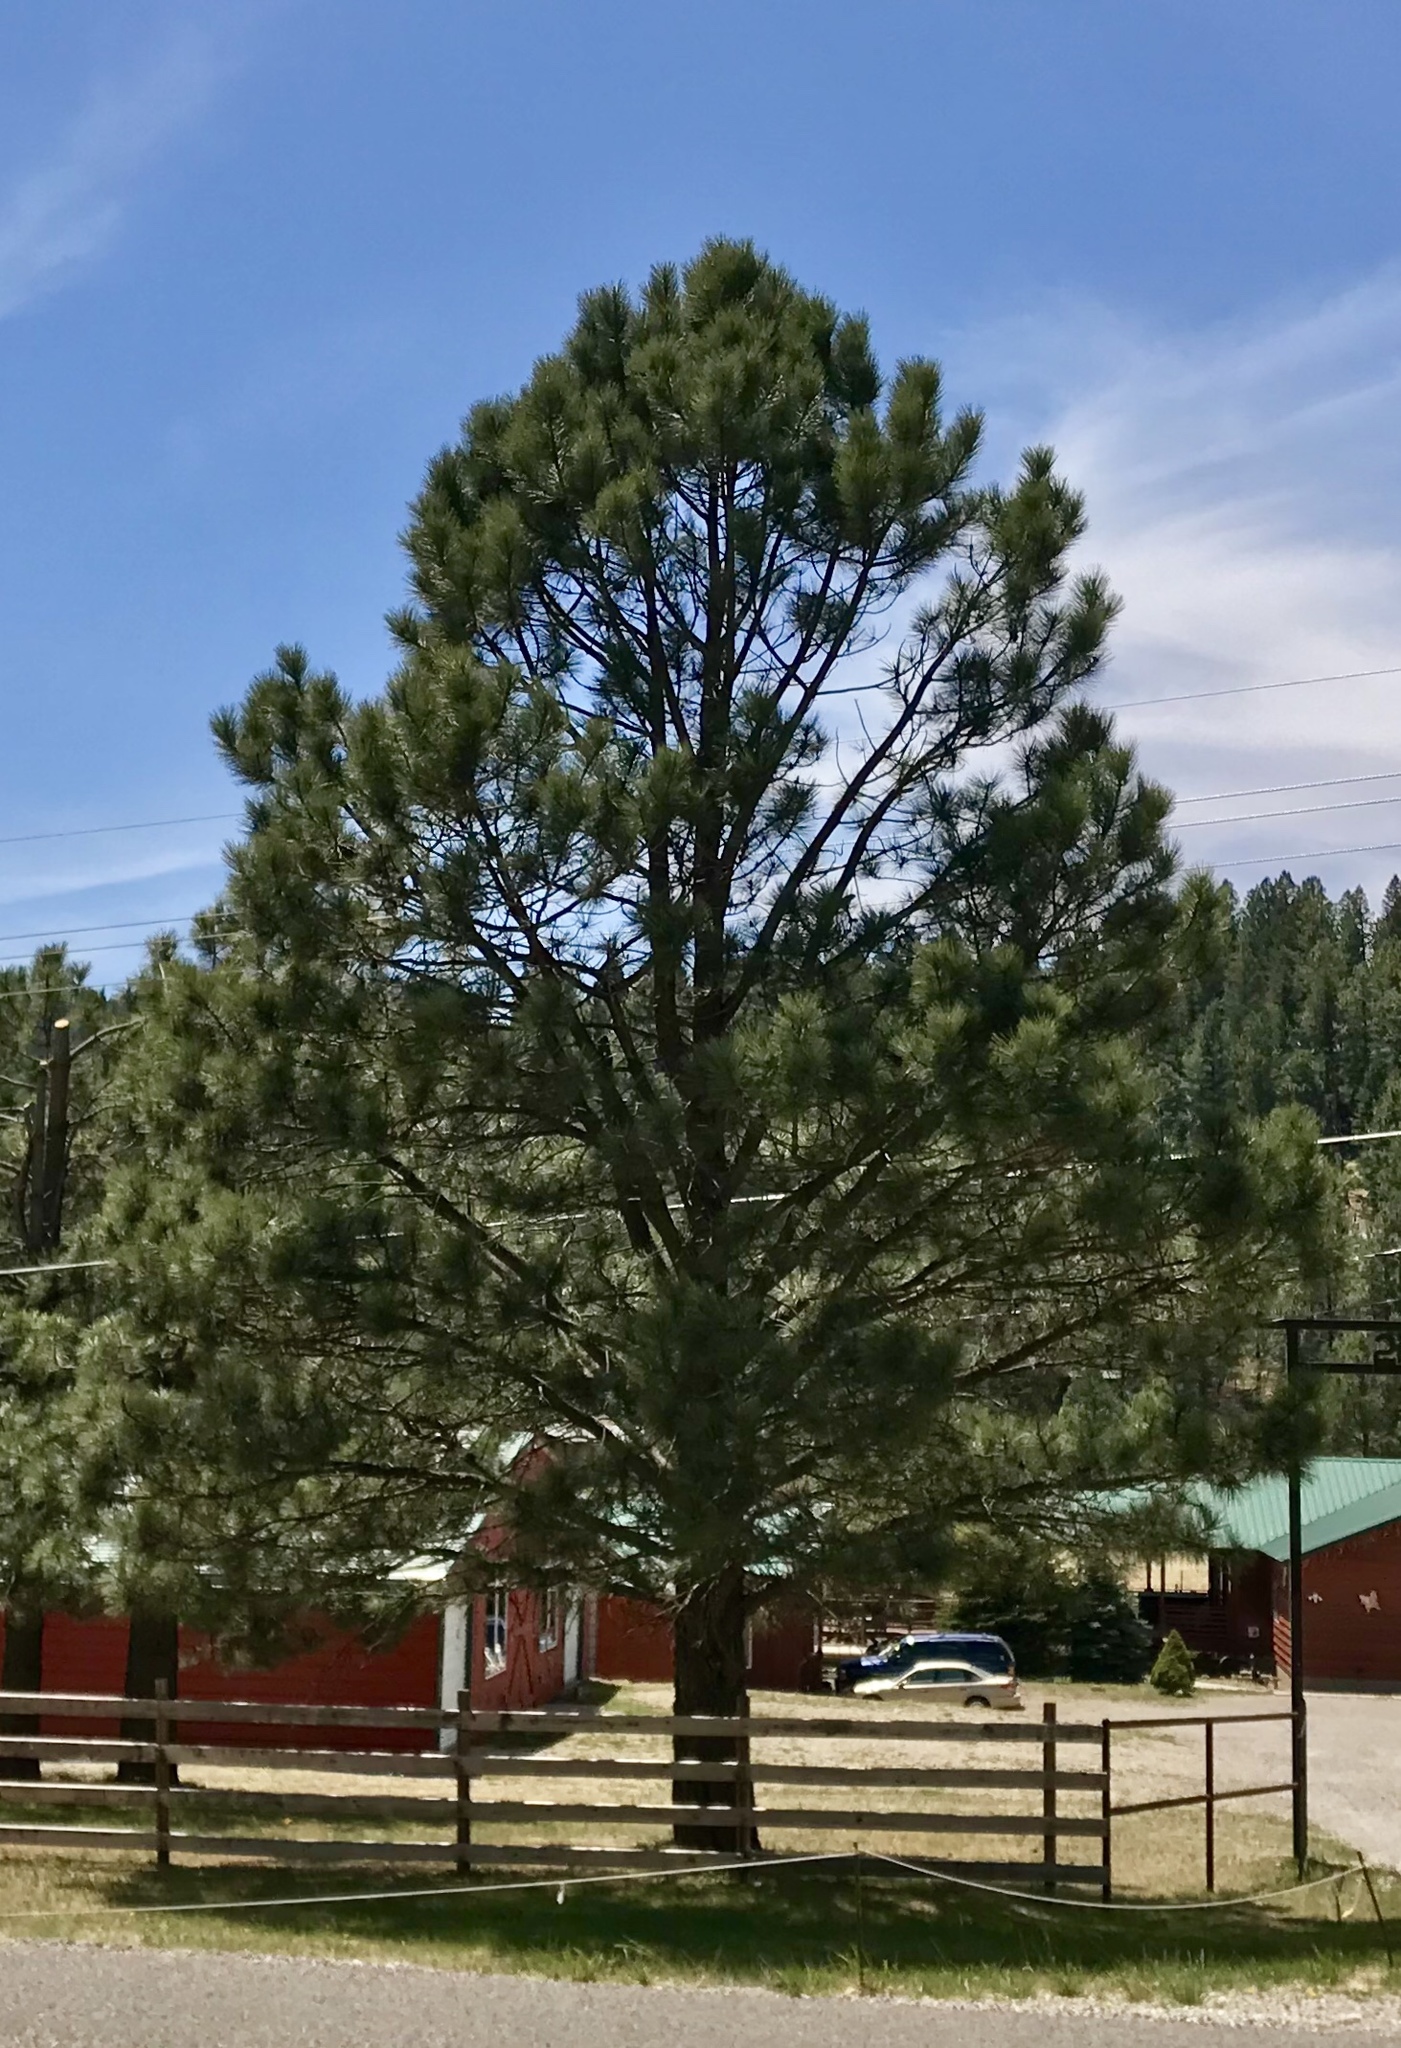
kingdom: Plantae
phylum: Tracheophyta
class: Pinopsida
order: Pinales
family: Pinaceae
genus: Pinus
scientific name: Pinus ponderosa
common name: Western yellow-pine
